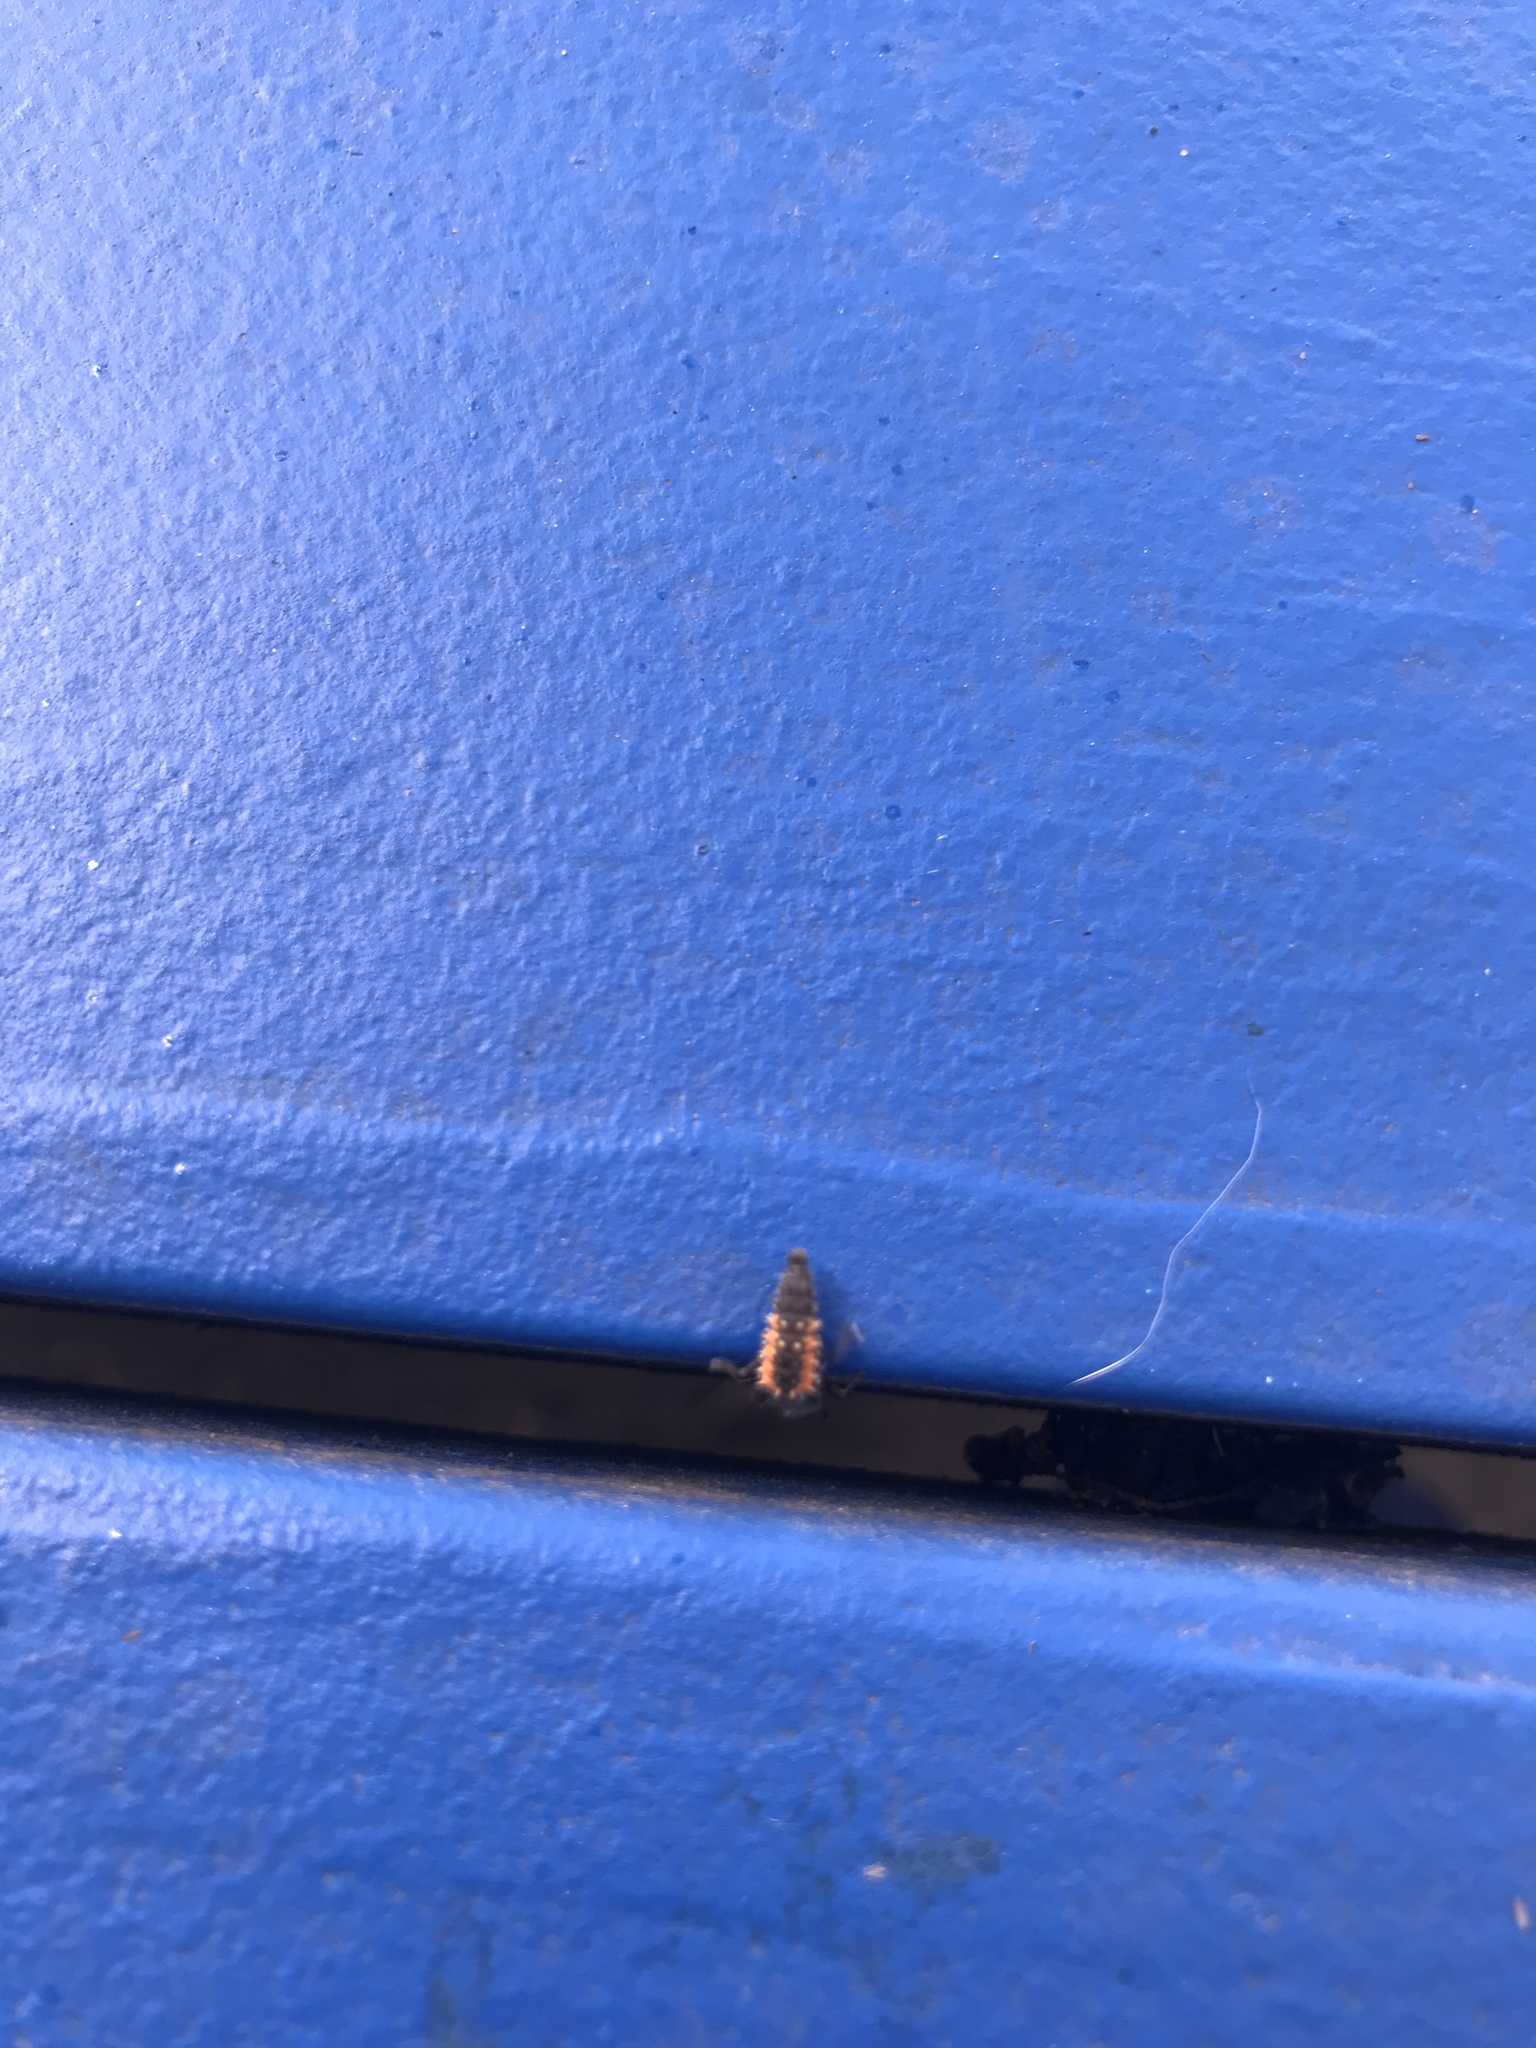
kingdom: Animalia
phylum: Arthropoda
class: Insecta
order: Coleoptera
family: Coccinellidae
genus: Harmonia
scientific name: Harmonia axyridis
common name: Harlequin ladybird
